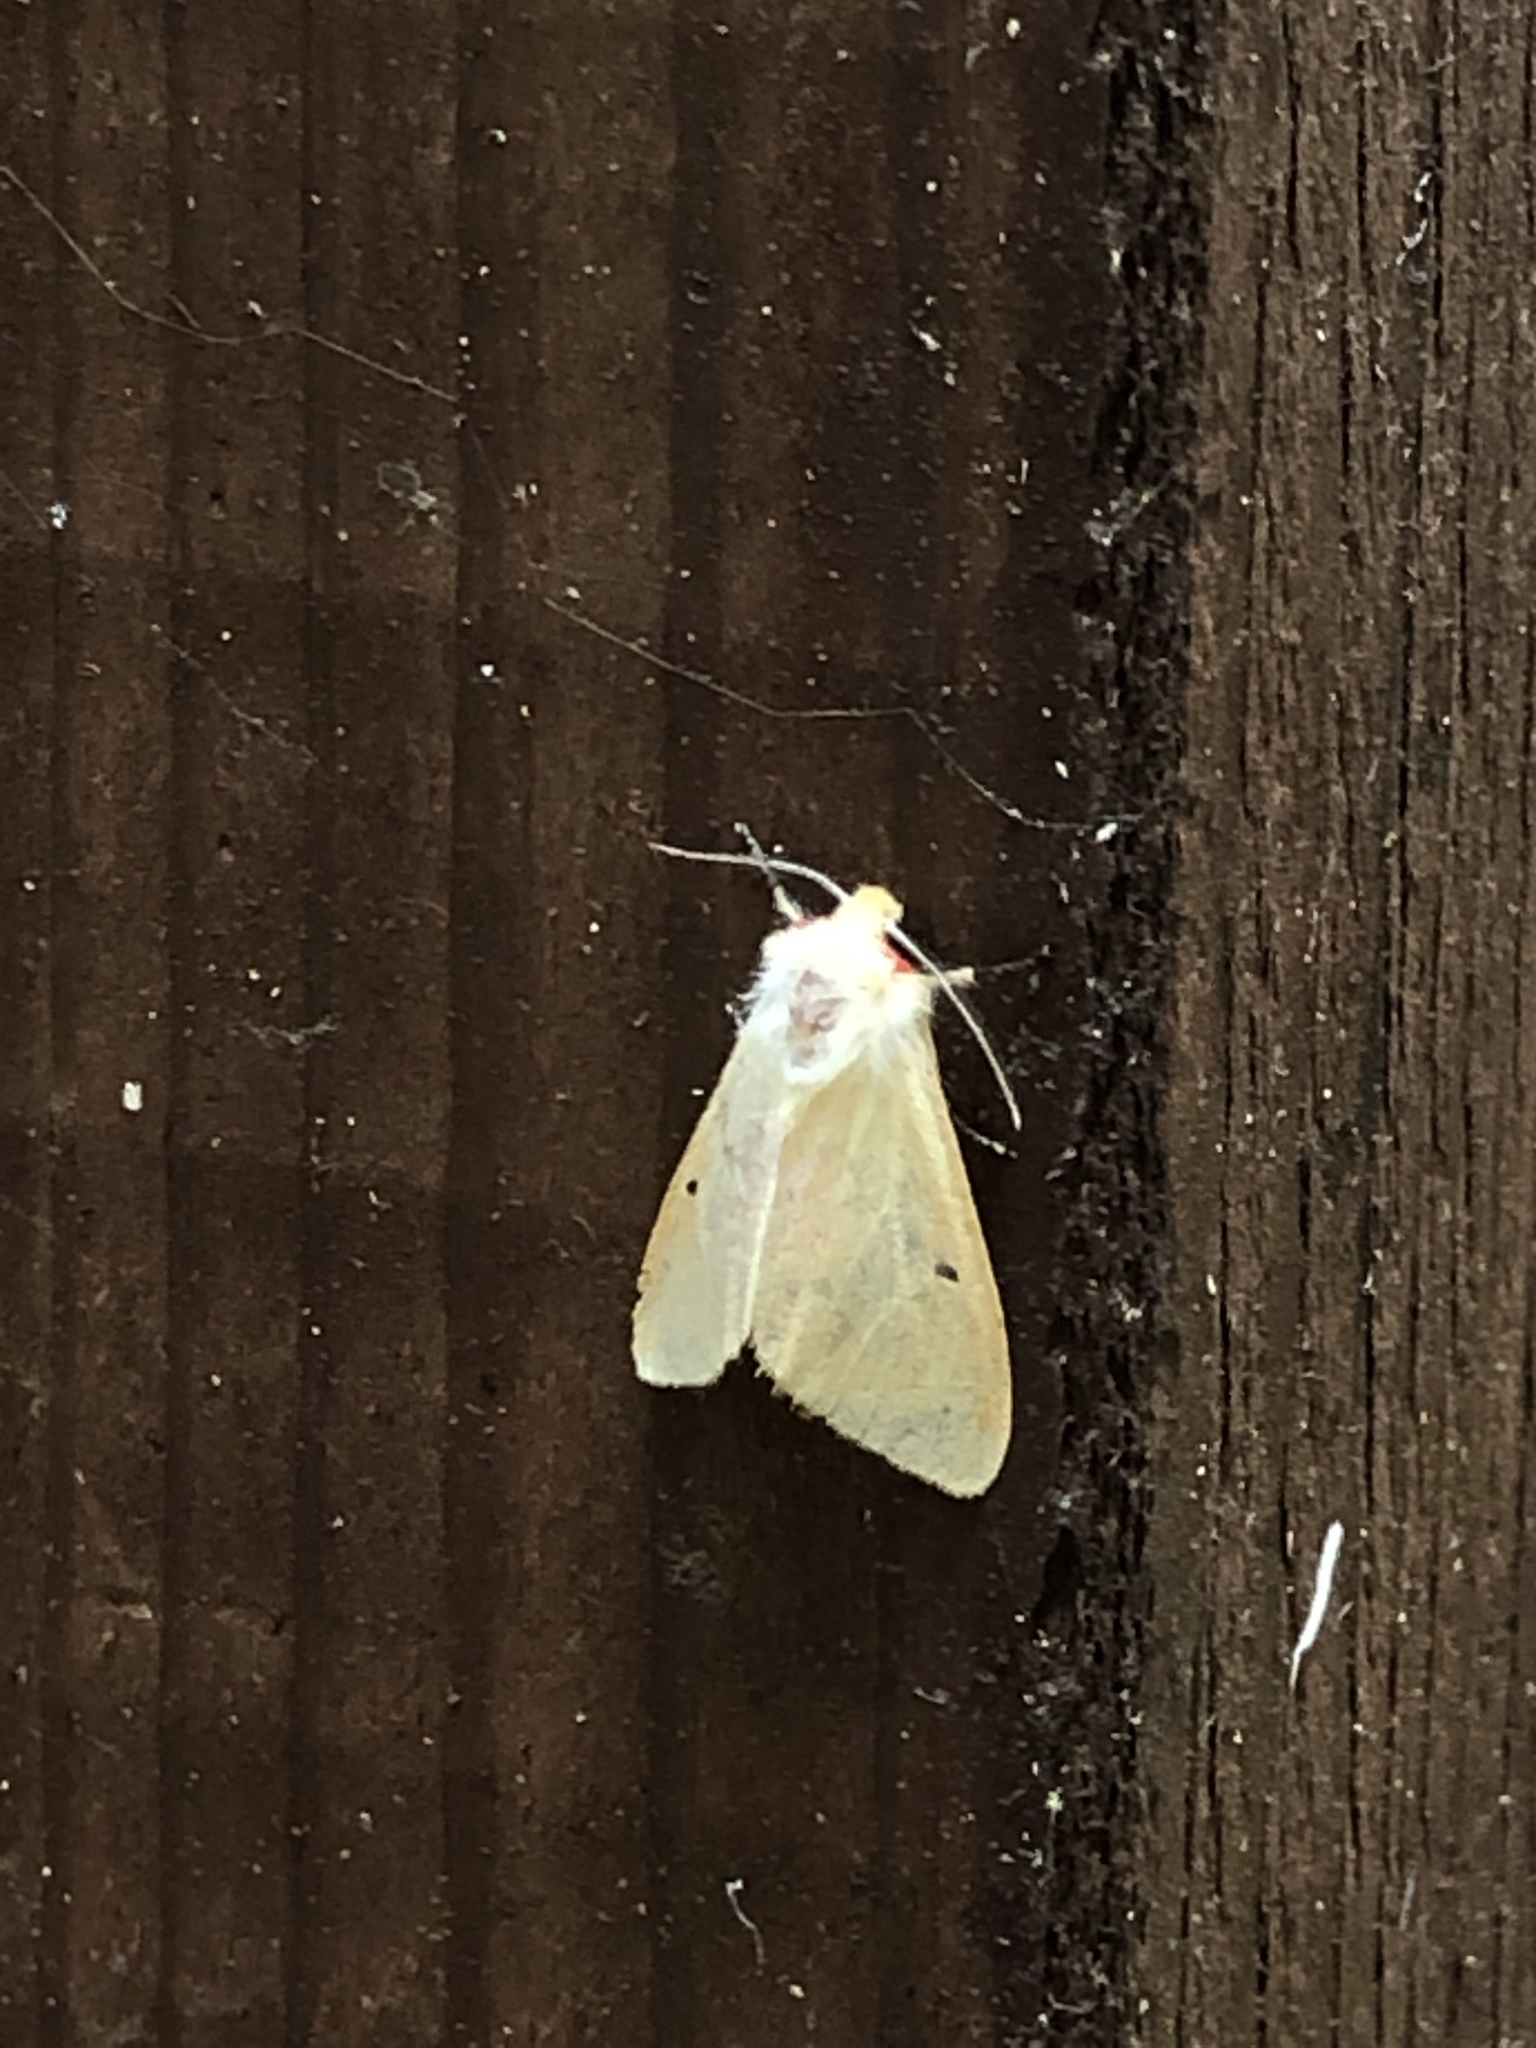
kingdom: Animalia
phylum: Arthropoda
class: Insecta
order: Lepidoptera
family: Erebidae
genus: Lemyra
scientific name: Lemyra inaequalis
